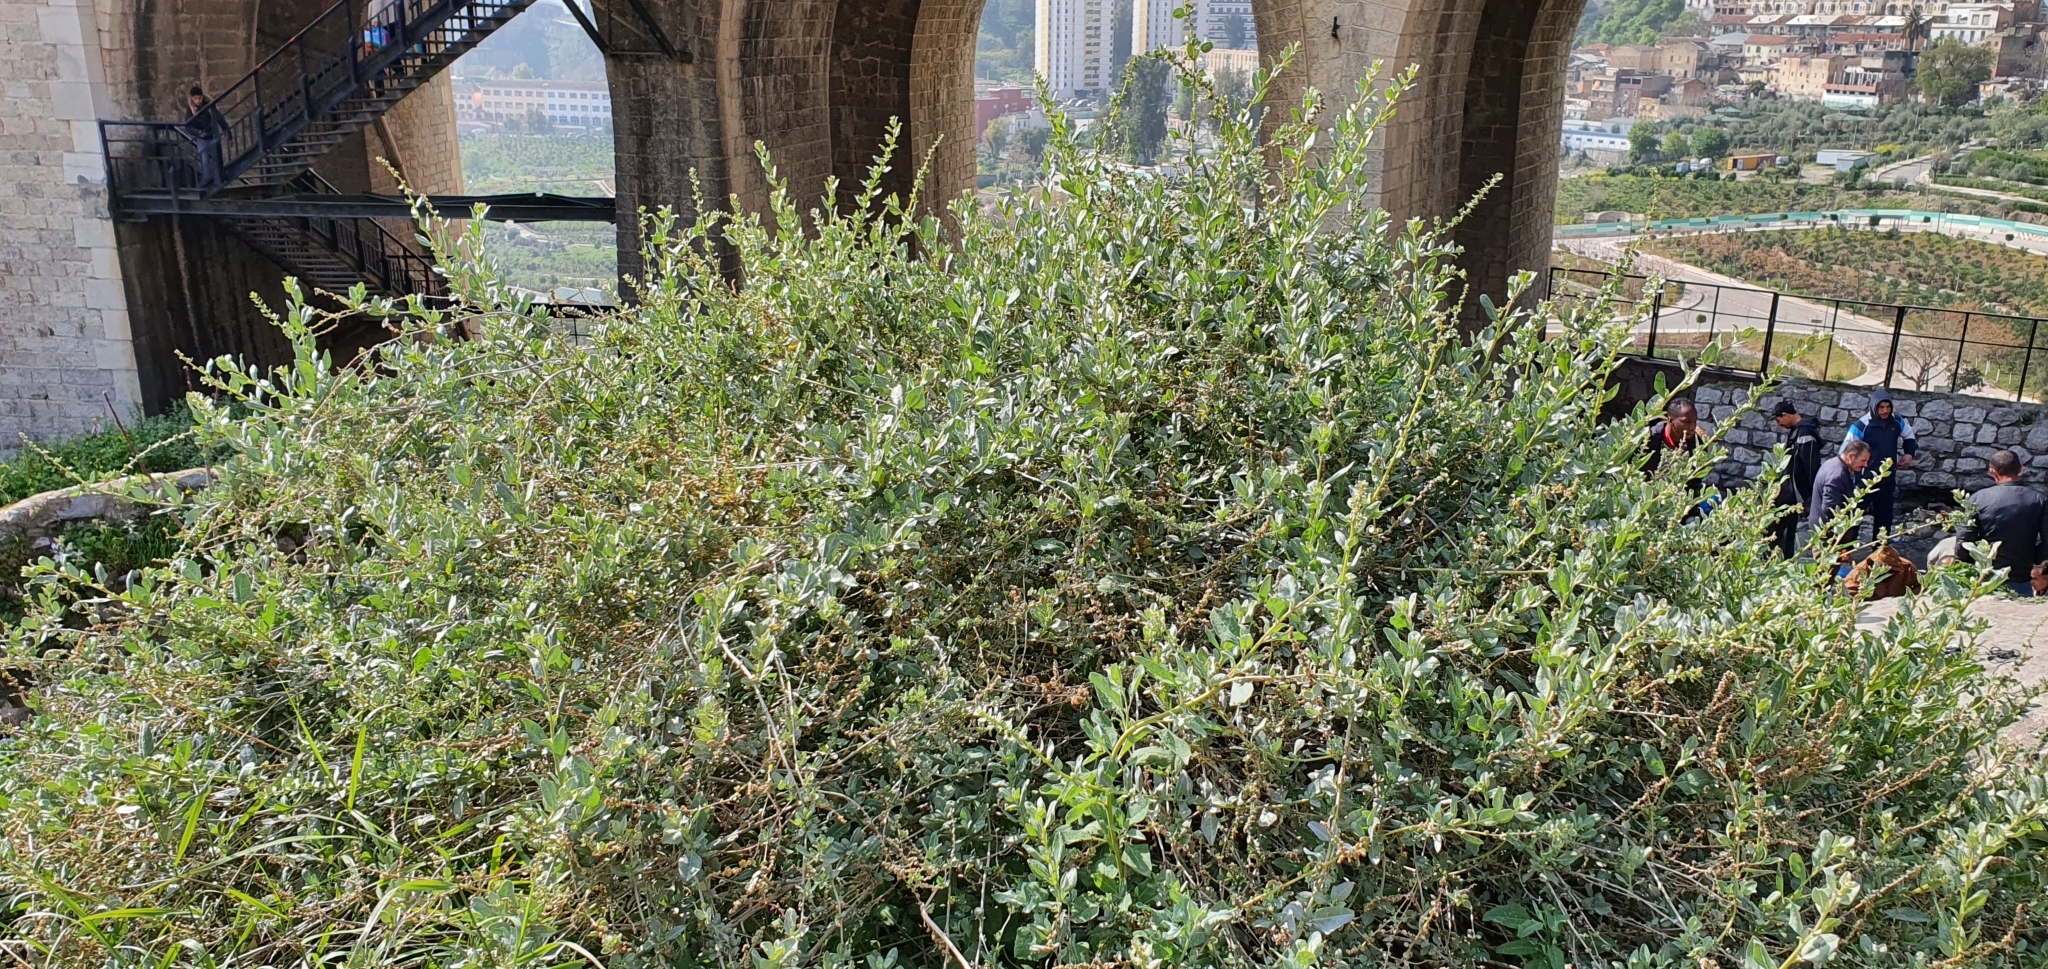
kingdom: Plantae
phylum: Tracheophyta
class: Magnoliopsida
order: Caryophyllales
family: Amaranthaceae
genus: Atriplex
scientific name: Atriplex halimus
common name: Shrubby orache
